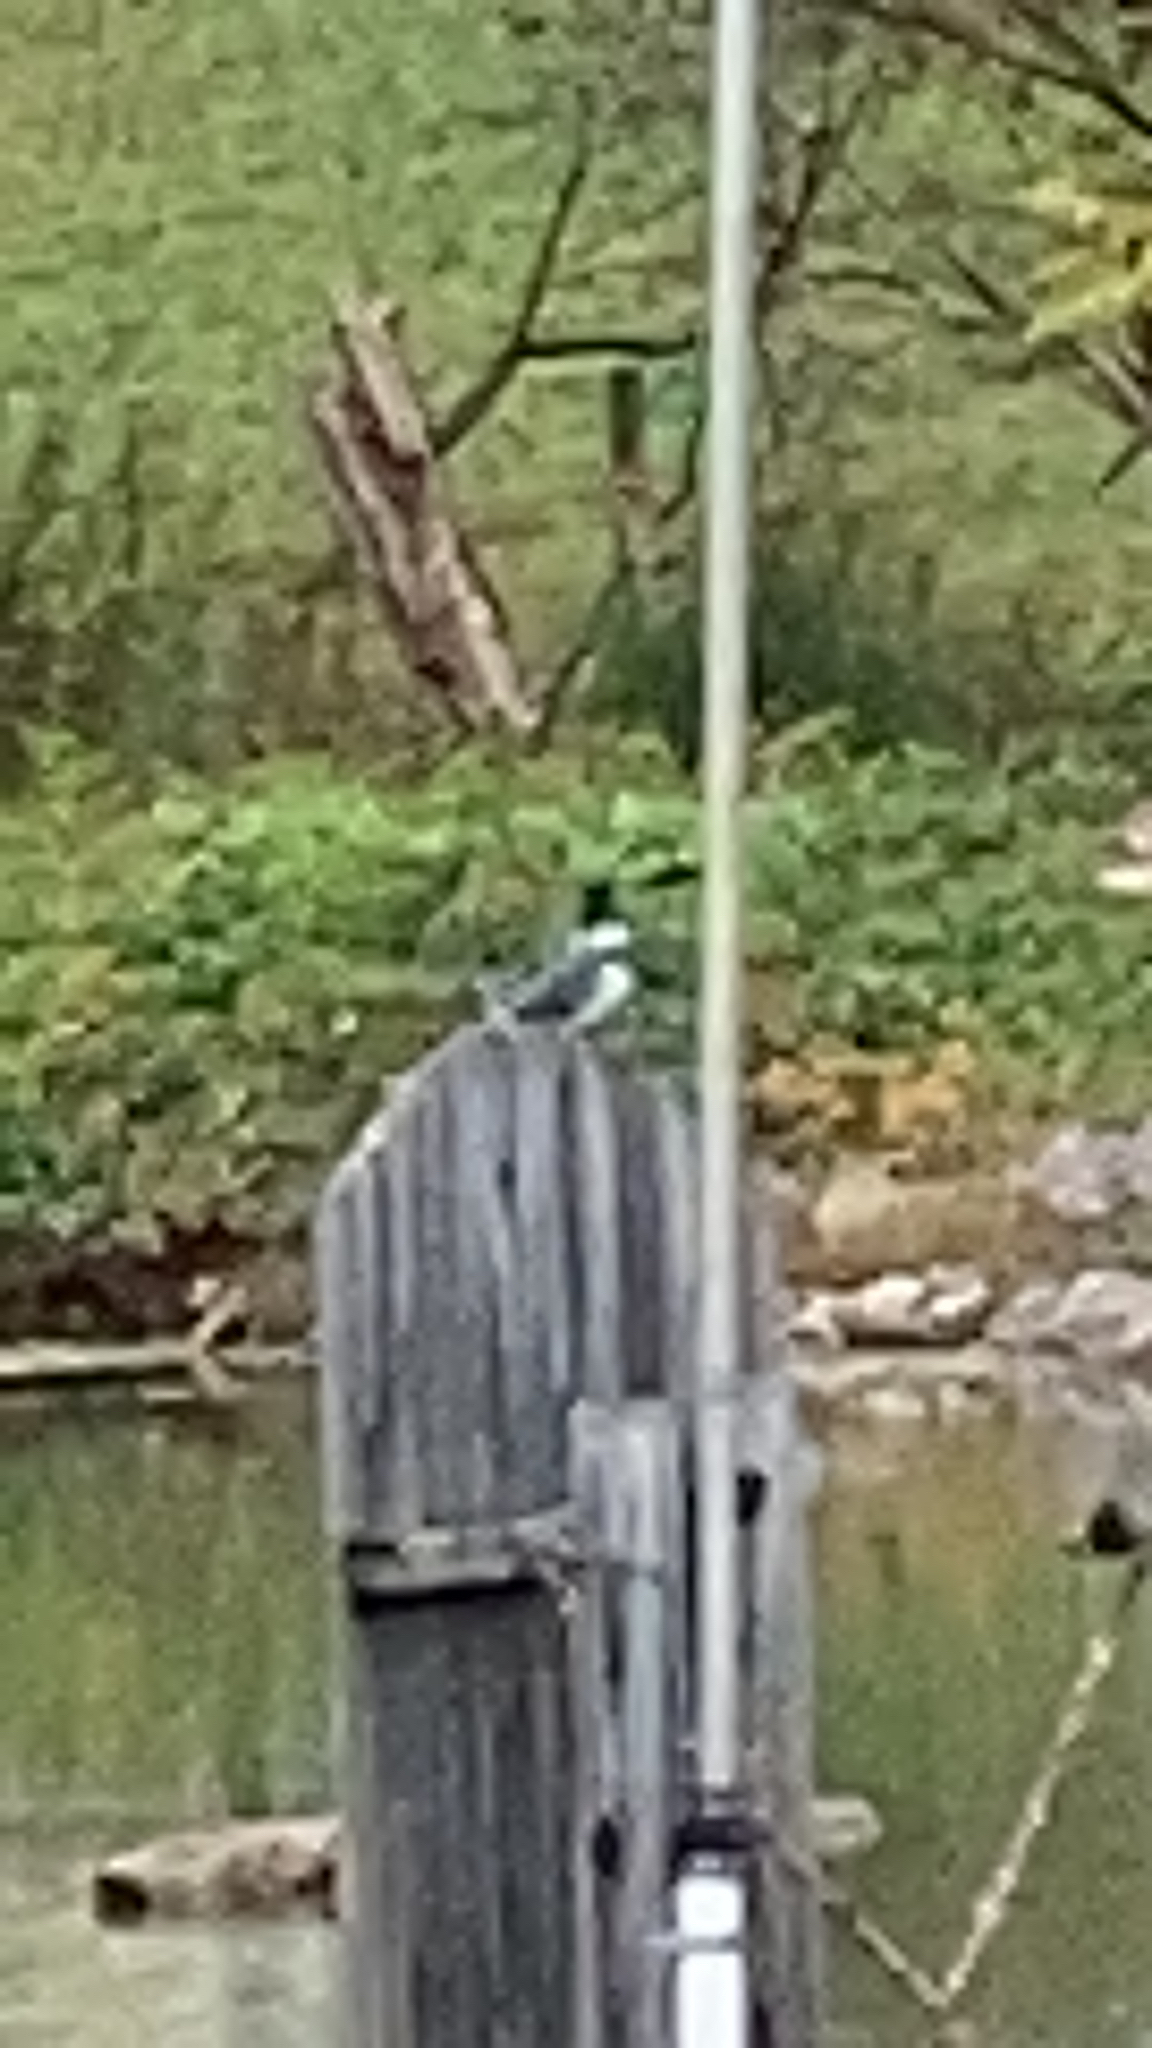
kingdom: Animalia
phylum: Chordata
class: Aves
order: Coraciiformes
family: Alcedinidae
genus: Megaceryle
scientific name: Megaceryle alcyon
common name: Belted kingfisher
